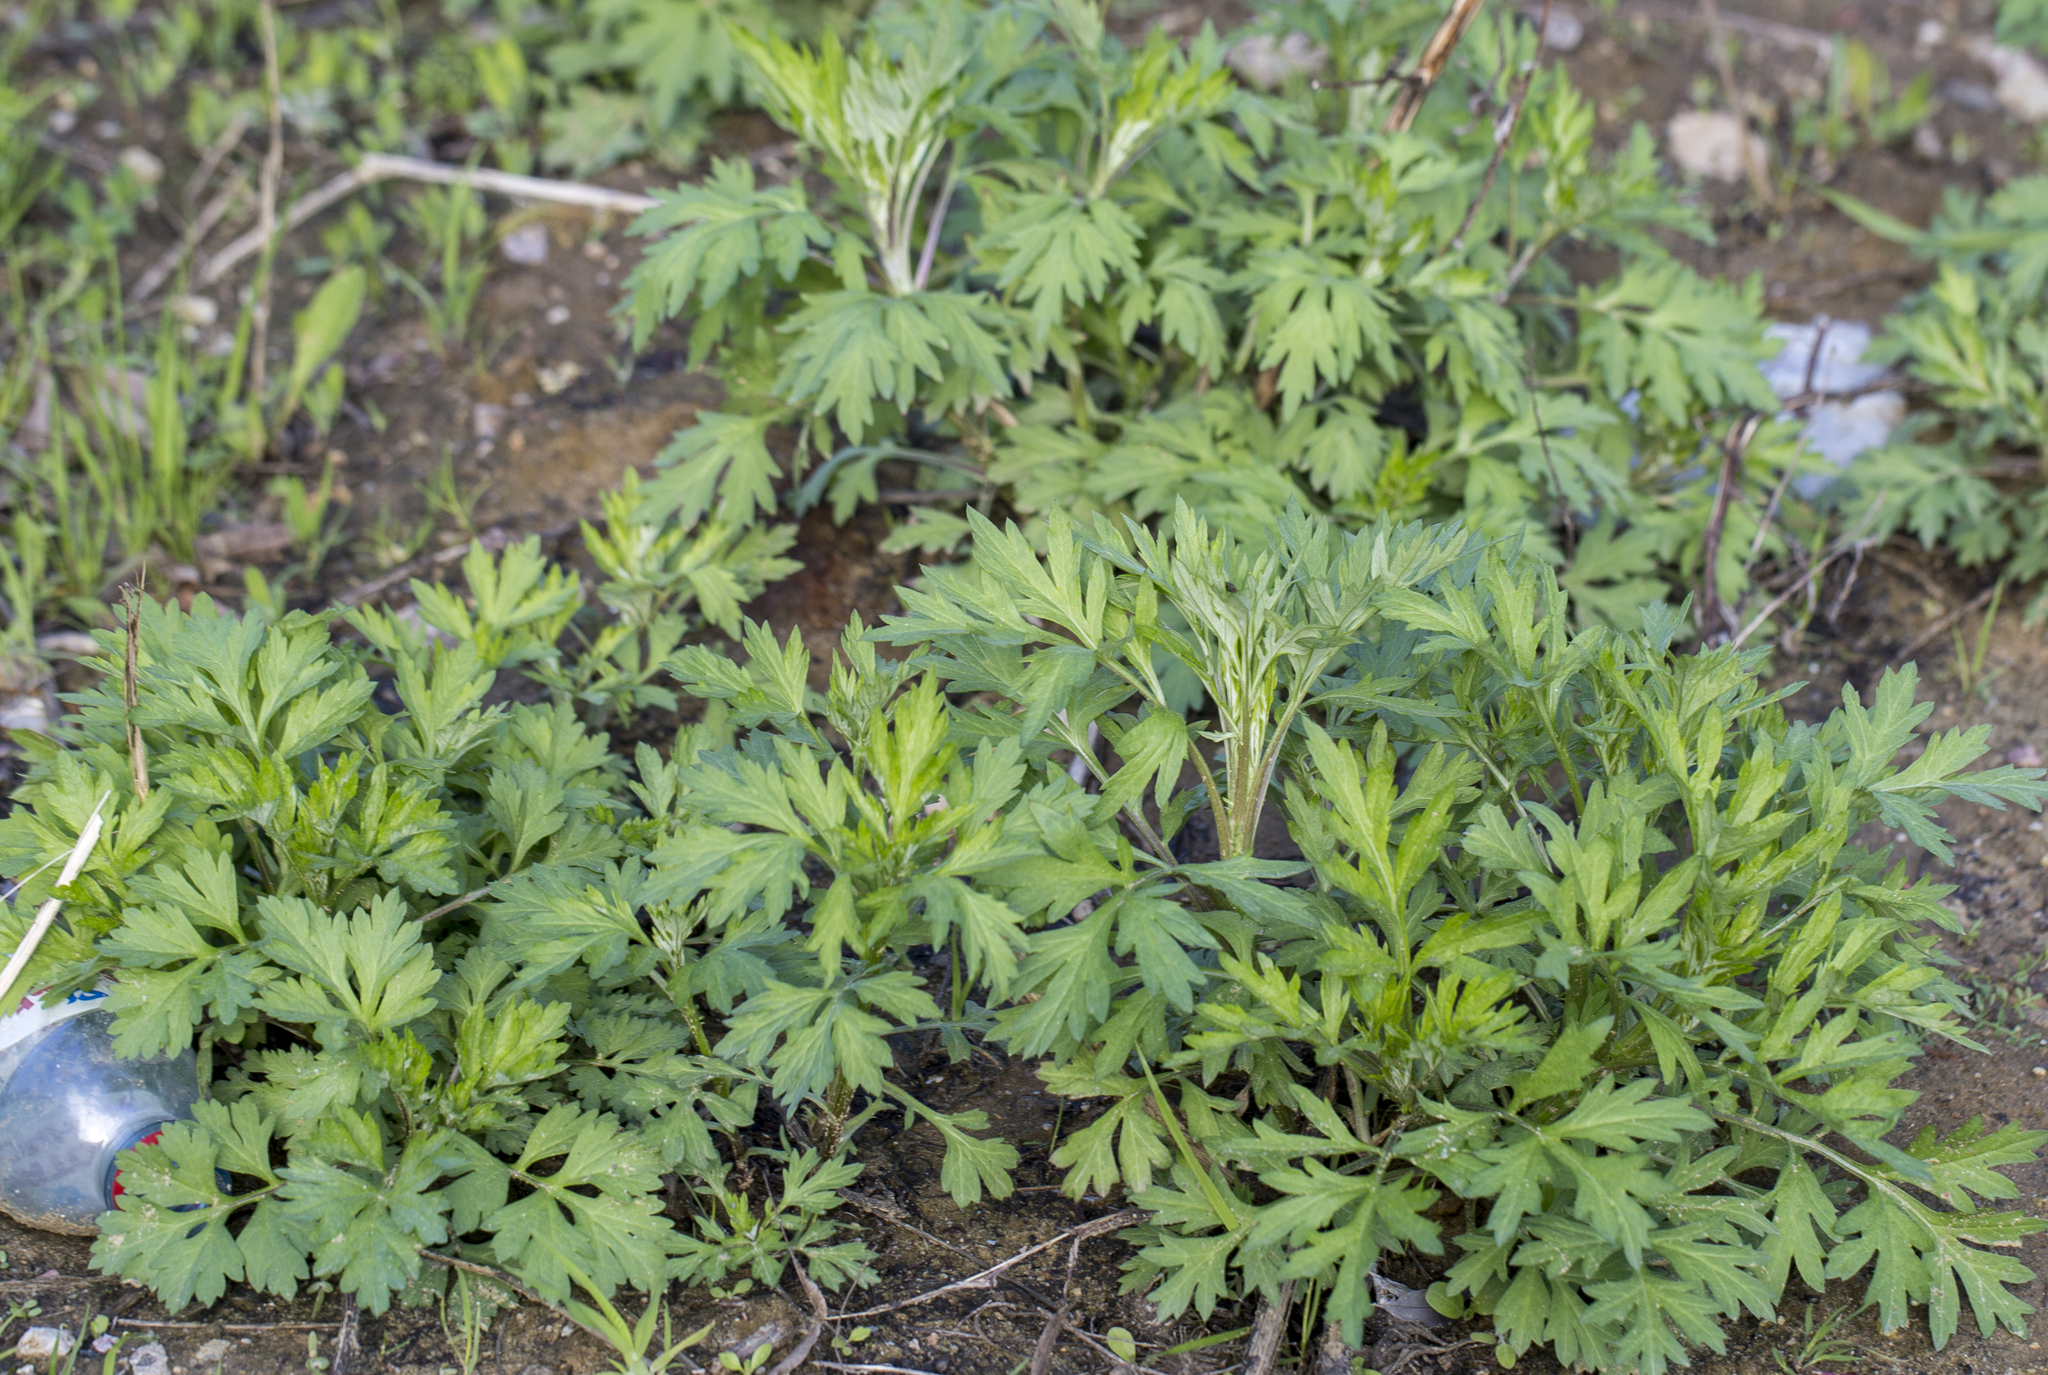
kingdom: Plantae
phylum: Tracheophyta
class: Magnoliopsida
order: Asterales
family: Asteraceae
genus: Artemisia
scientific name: Artemisia vulgaris
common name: Mugwort
